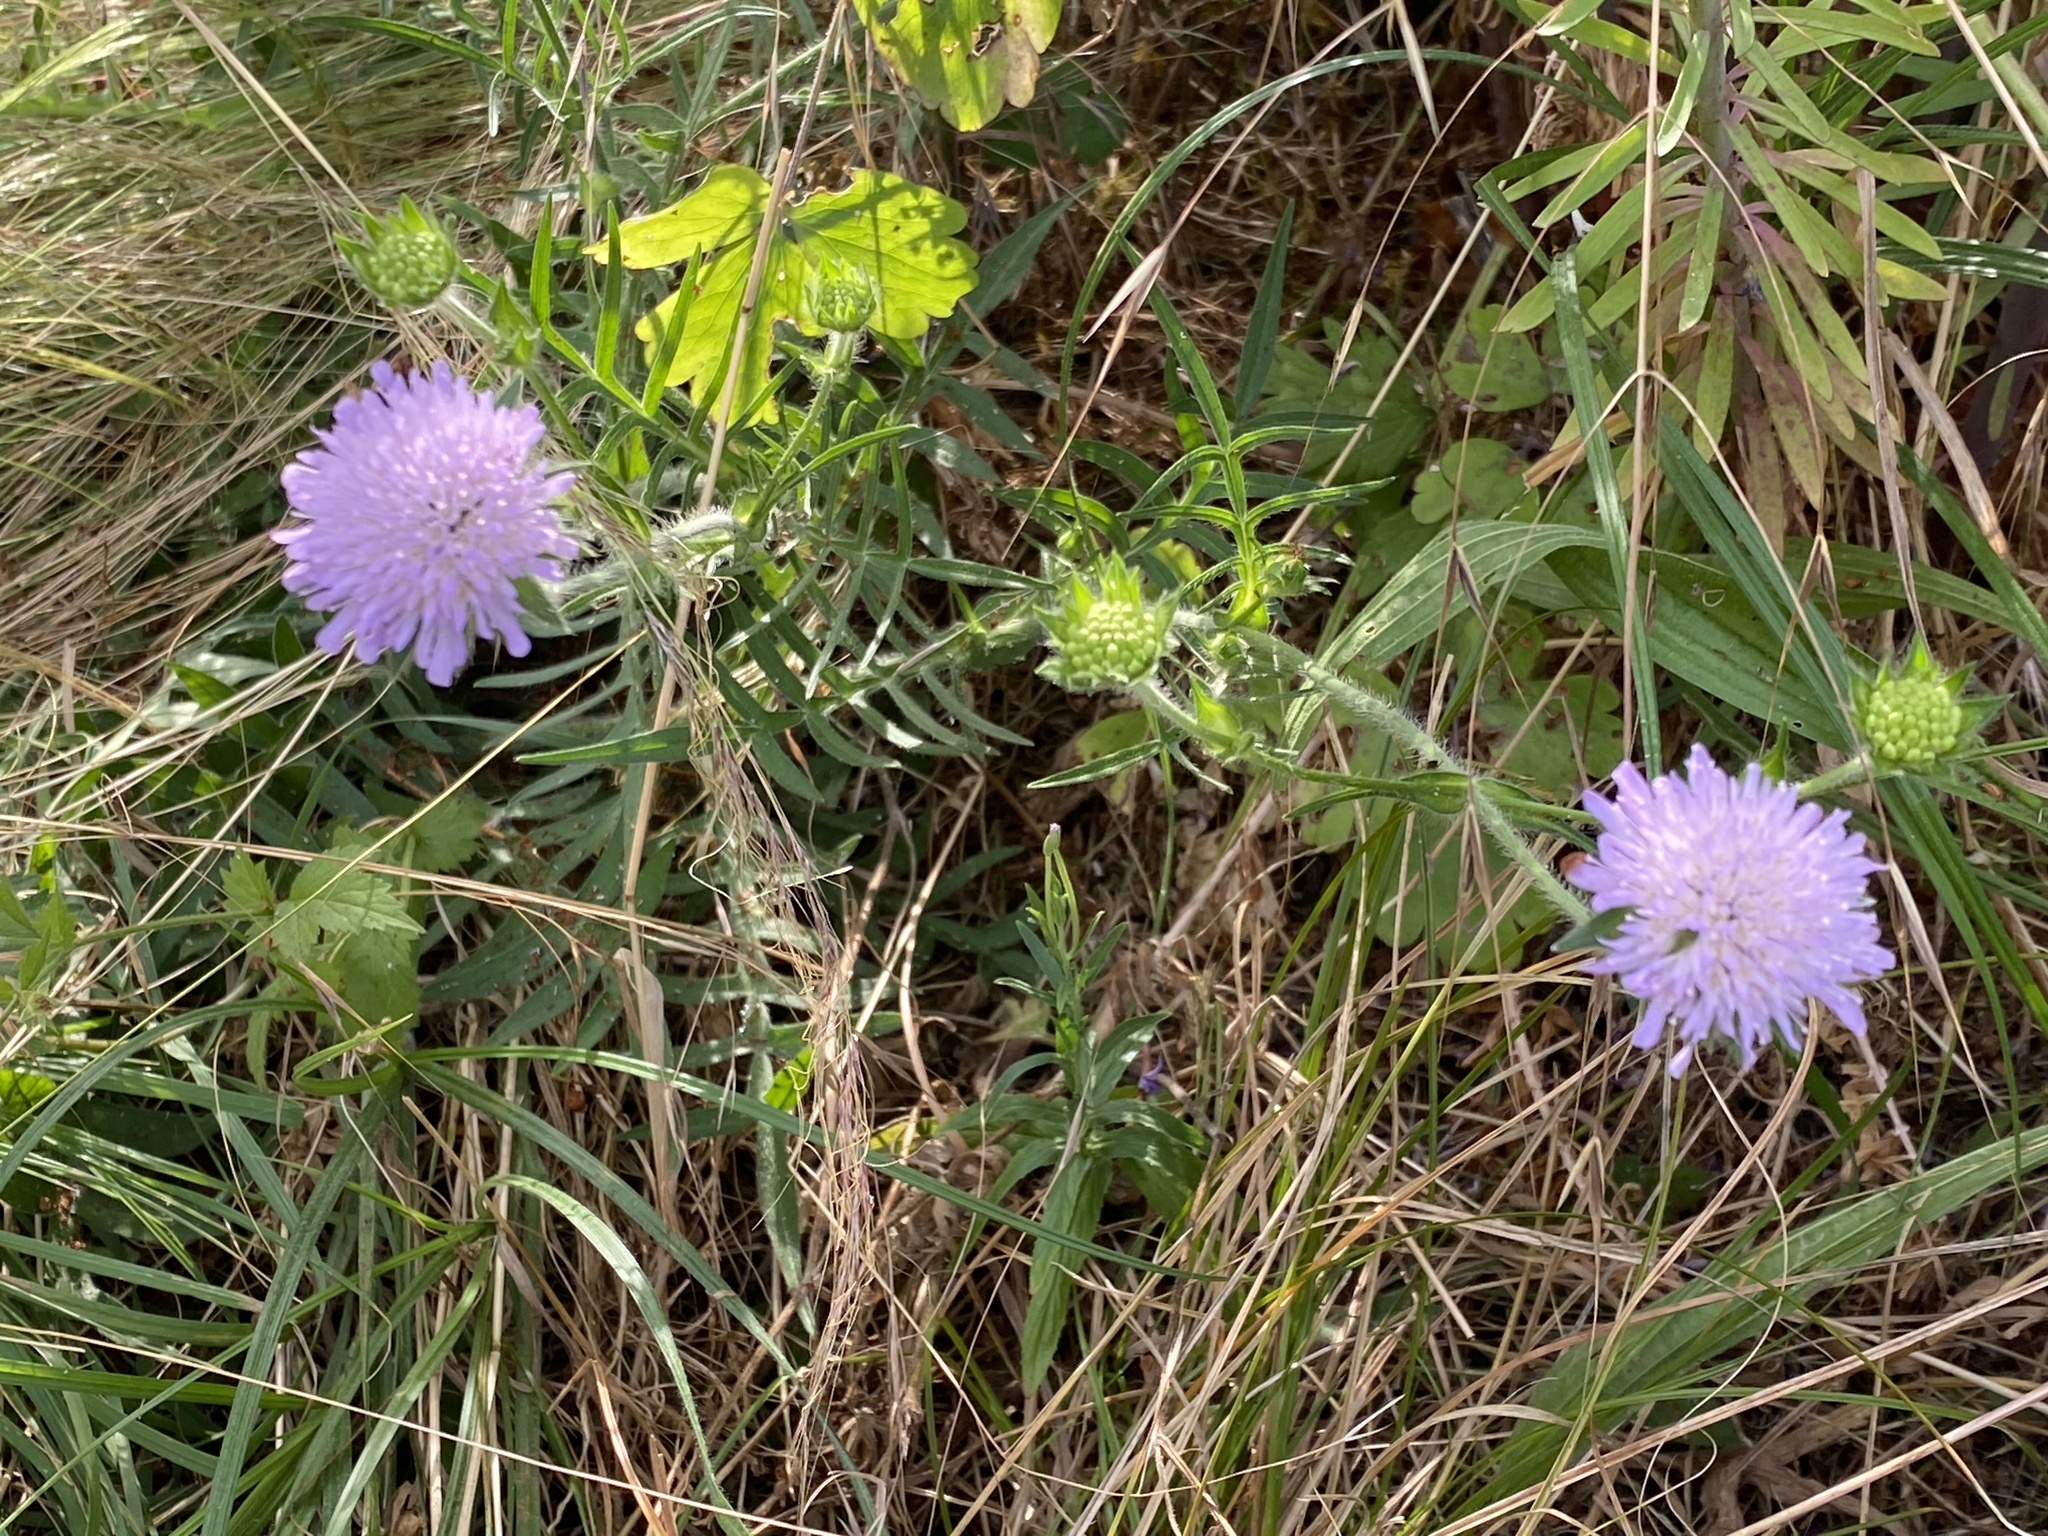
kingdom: Plantae
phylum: Tracheophyta
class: Magnoliopsida
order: Dipsacales
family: Caprifoliaceae
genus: Knautia
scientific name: Knautia arvensis
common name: Field scabiosa
